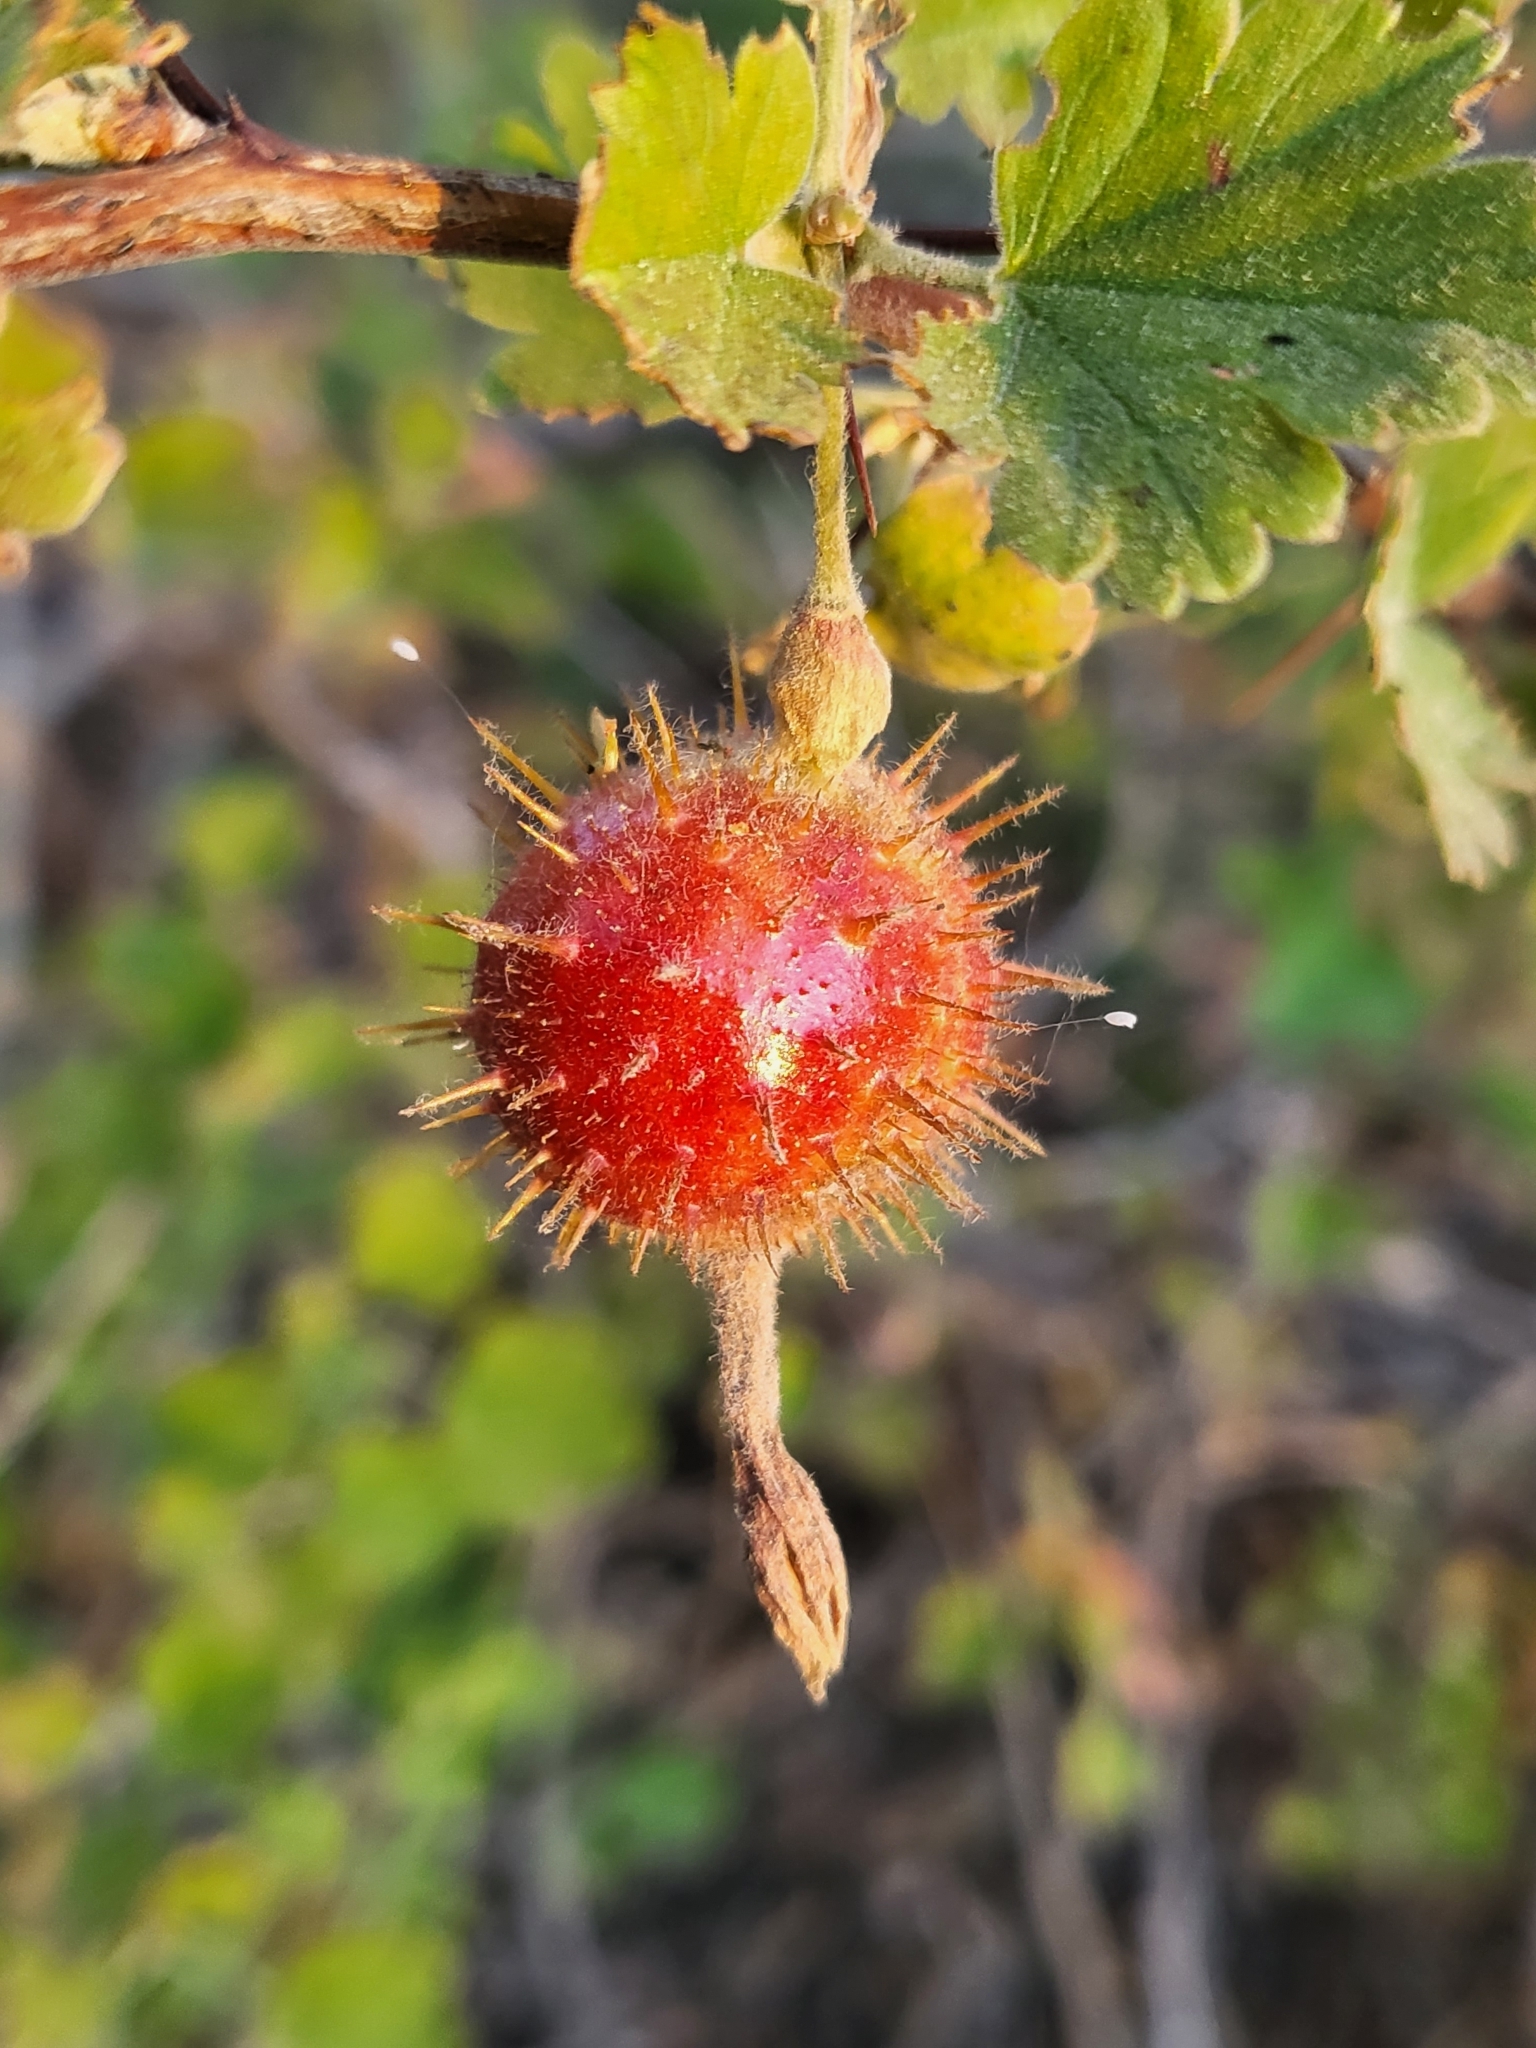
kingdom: Plantae
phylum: Tracheophyta
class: Magnoliopsida
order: Saxifragales
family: Grossulariaceae
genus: Ribes
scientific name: Ribes roezlii
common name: Sierra gooseberry
